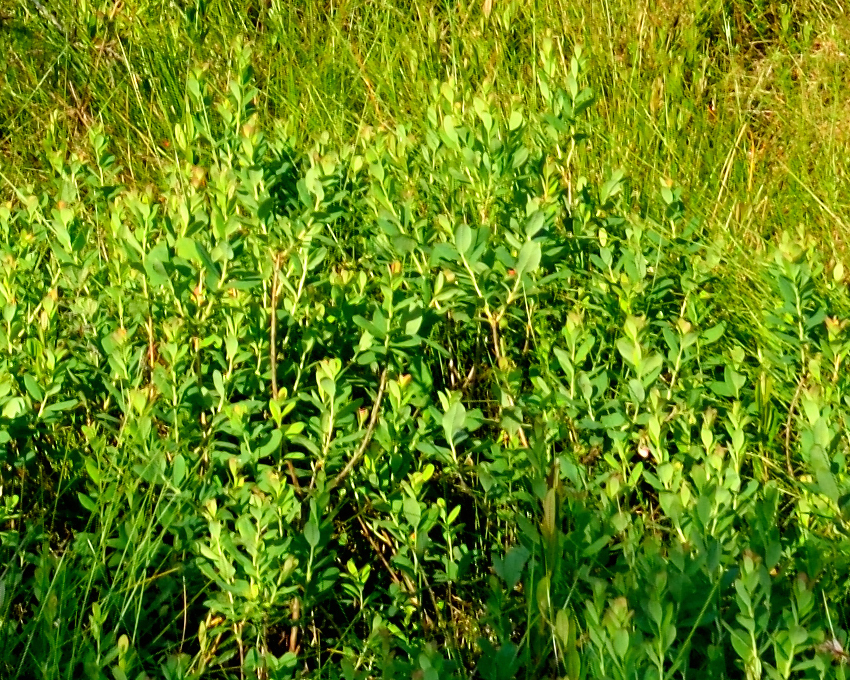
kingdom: Plantae
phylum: Tracheophyta
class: Magnoliopsida
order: Ericales
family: Ericaceae
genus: Vaccinium
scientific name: Vaccinium uliginosum
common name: Bog bilberry
